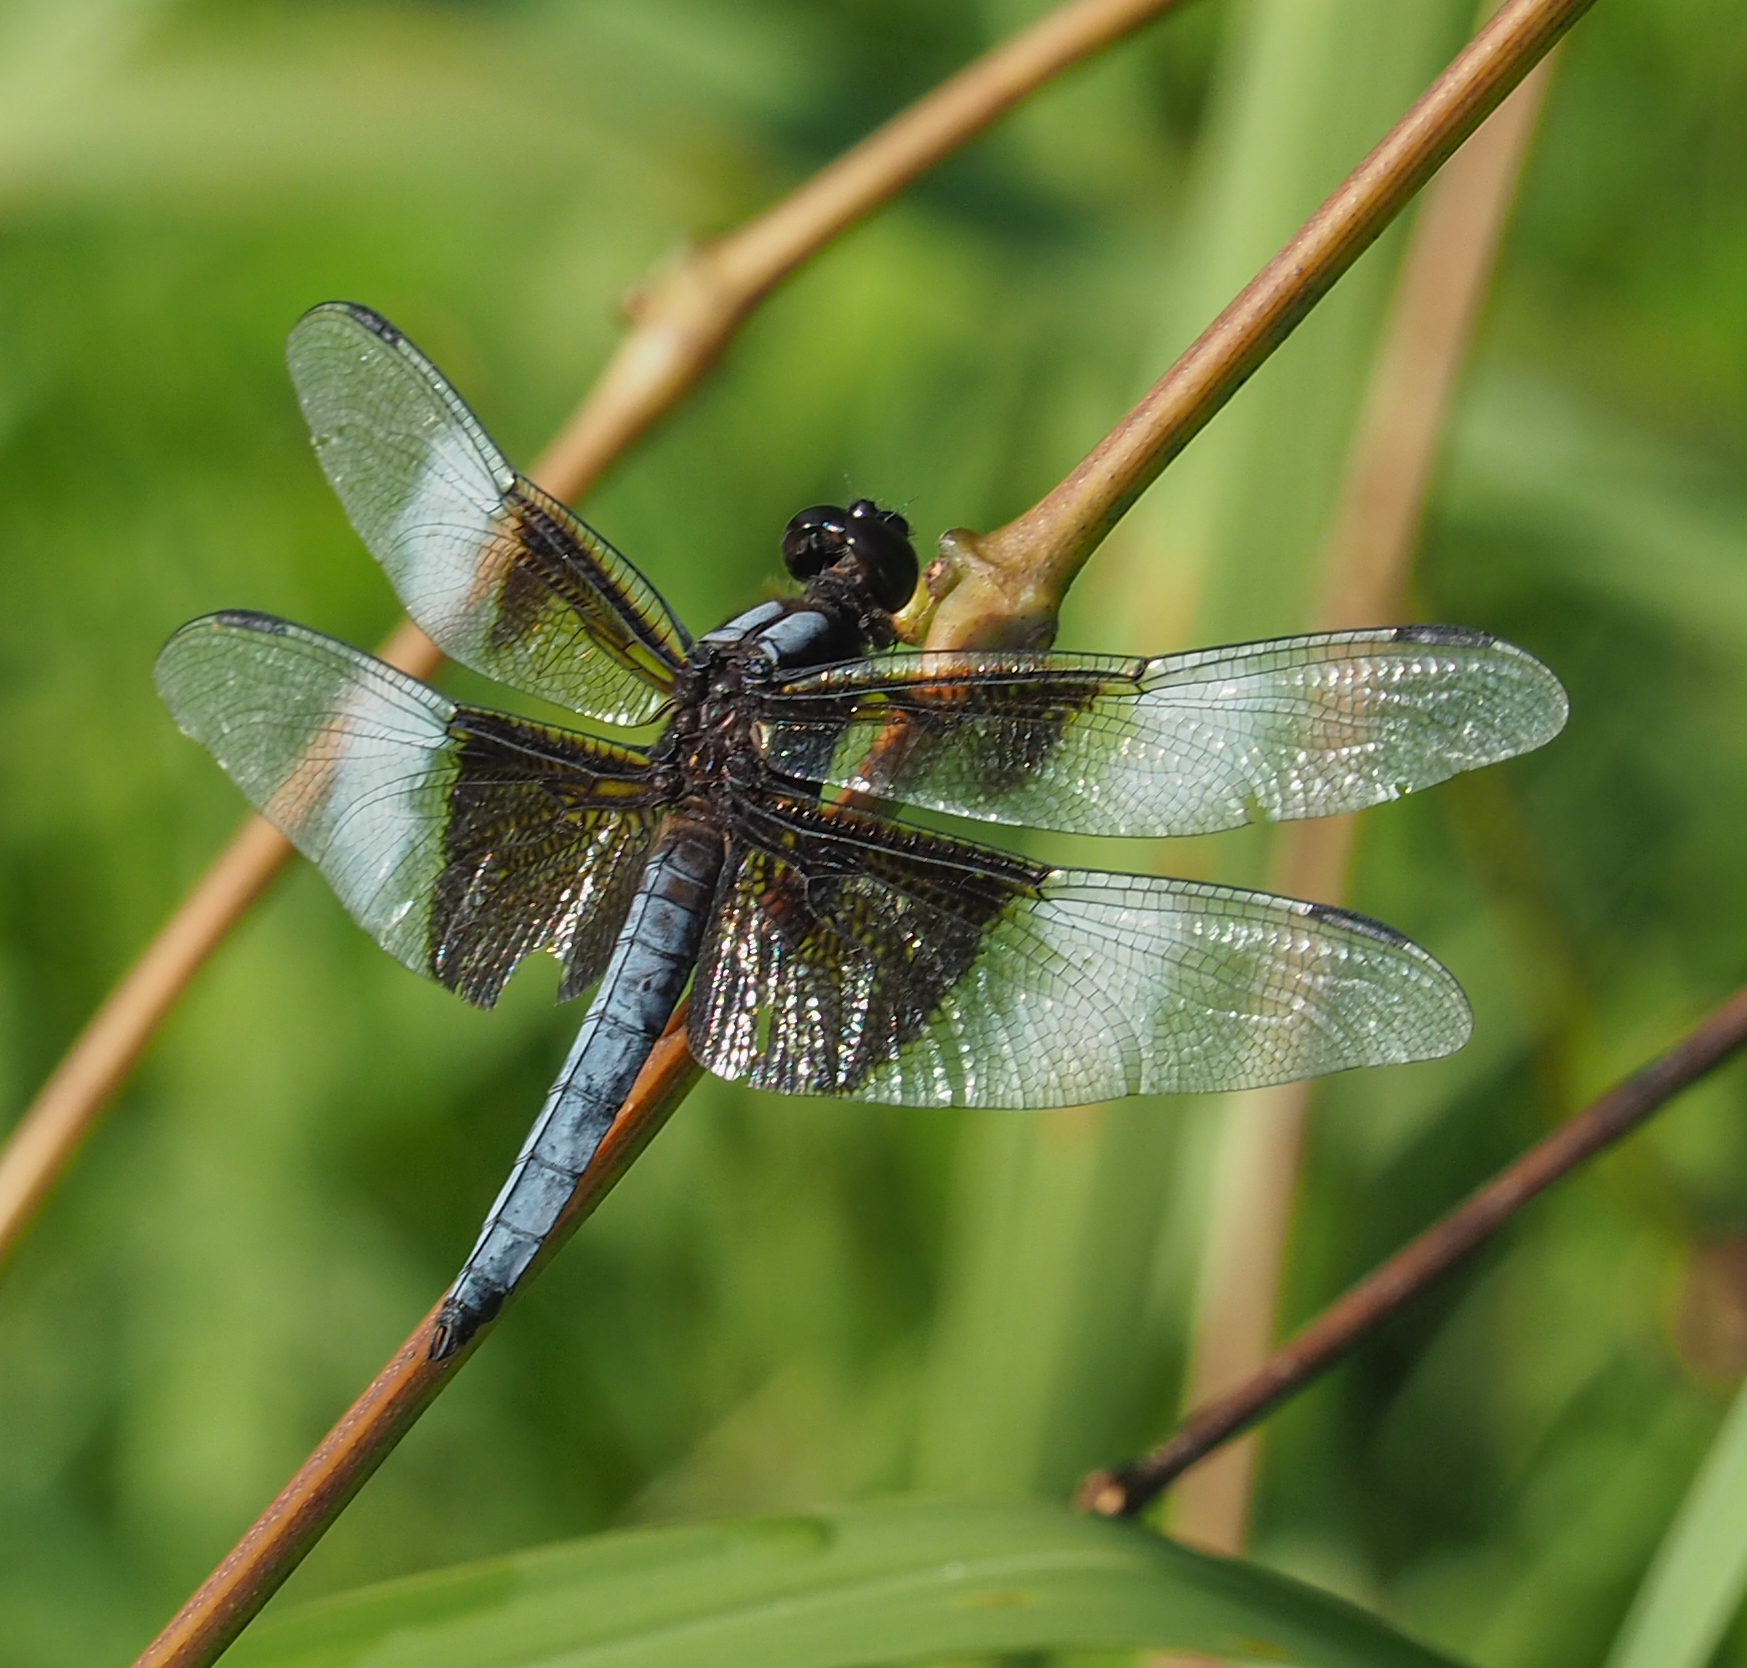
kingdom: Animalia
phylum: Arthropoda
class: Insecta
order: Odonata
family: Libellulidae
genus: Libellula
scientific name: Libellula luctuosa
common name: Widow skimmer
